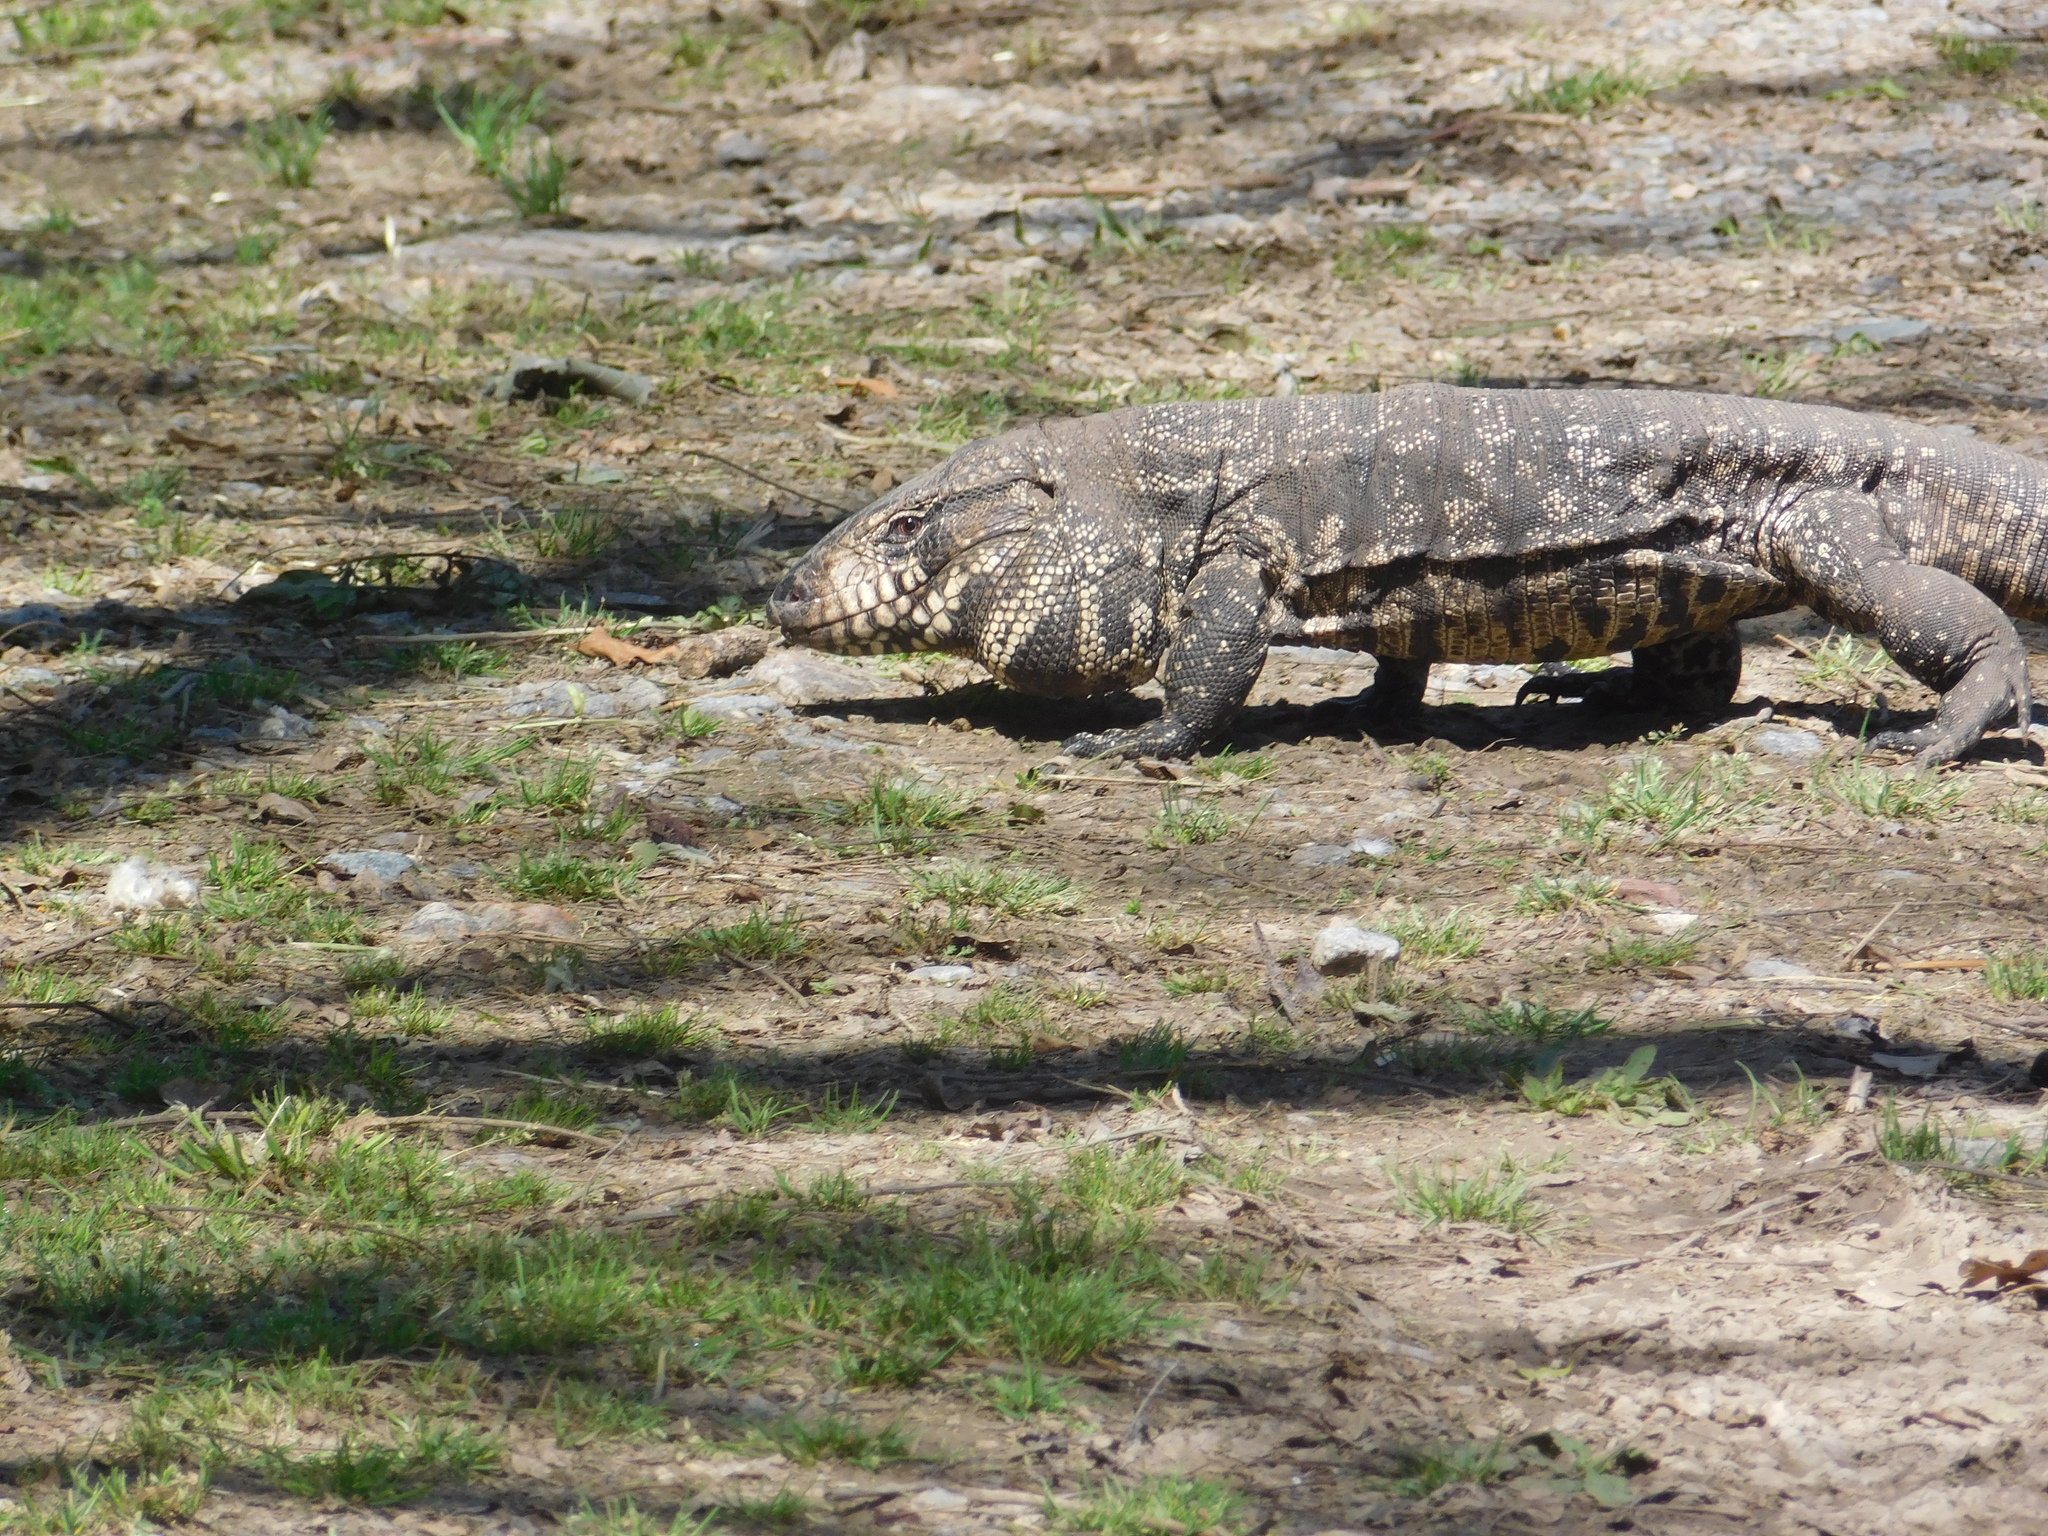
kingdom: Animalia
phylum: Chordata
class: Squamata
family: Teiidae
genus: Salvator
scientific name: Salvator merianae
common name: Argentine black and white tegu
